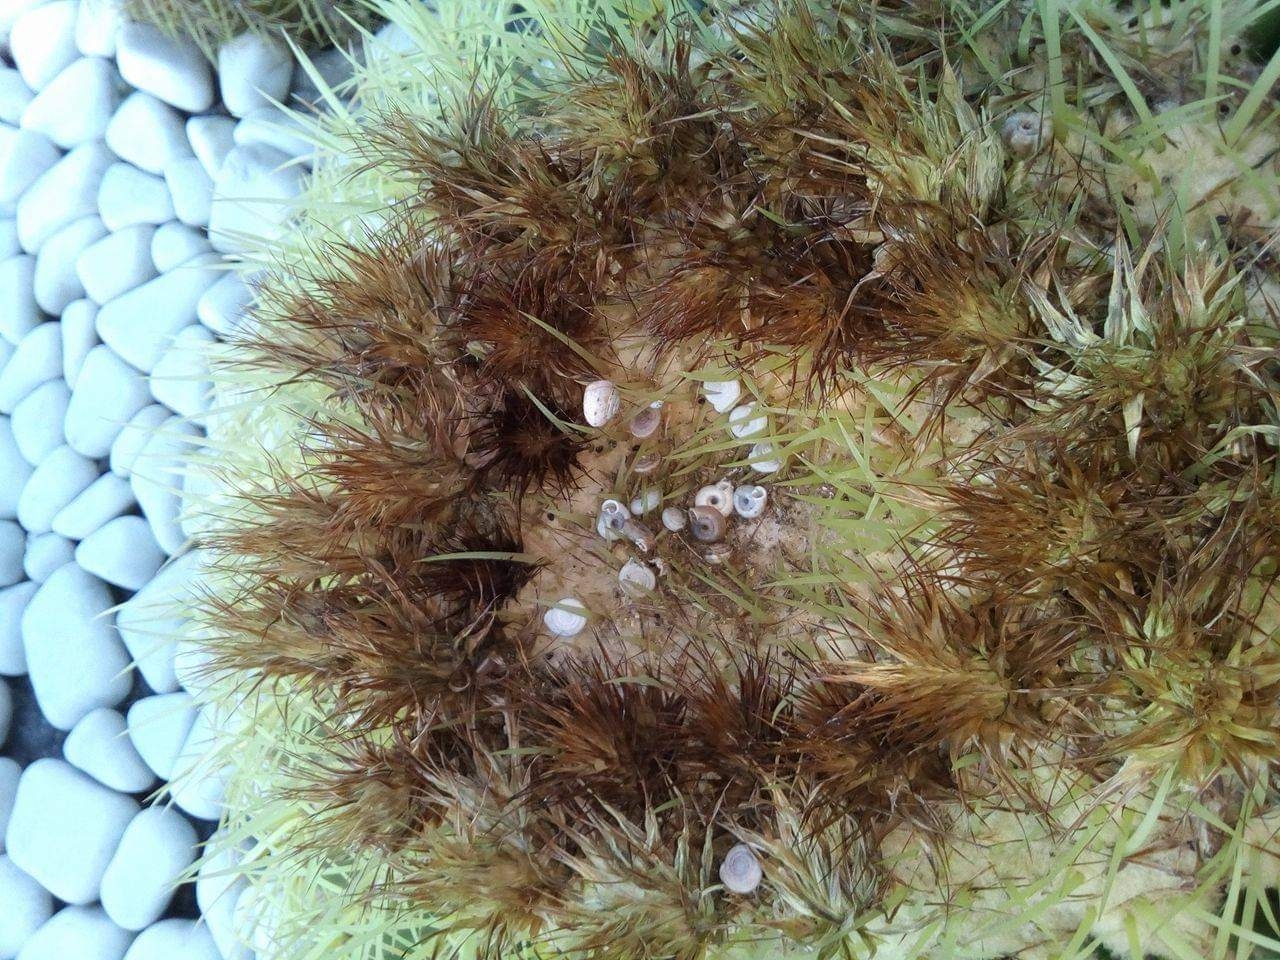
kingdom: Animalia
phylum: Mollusca
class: Gastropoda
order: Stylommatophora
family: Polygyridae
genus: Polygyra
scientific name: Polygyra cereolus
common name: Southern flatcone snail
